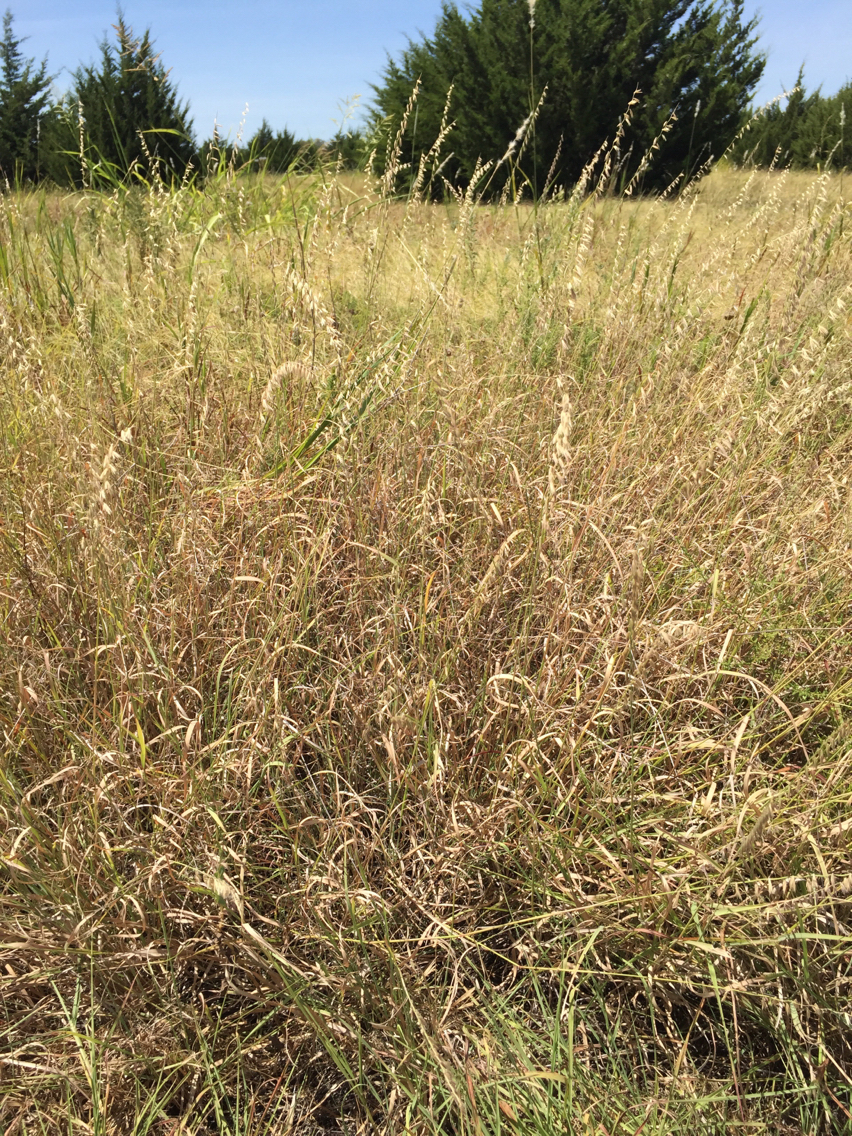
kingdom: Plantae
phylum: Tracheophyta
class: Liliopsida
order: Poales
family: Poaceae
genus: Bouteloua
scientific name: Bouteloua curtipendula
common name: Side-oats grama
